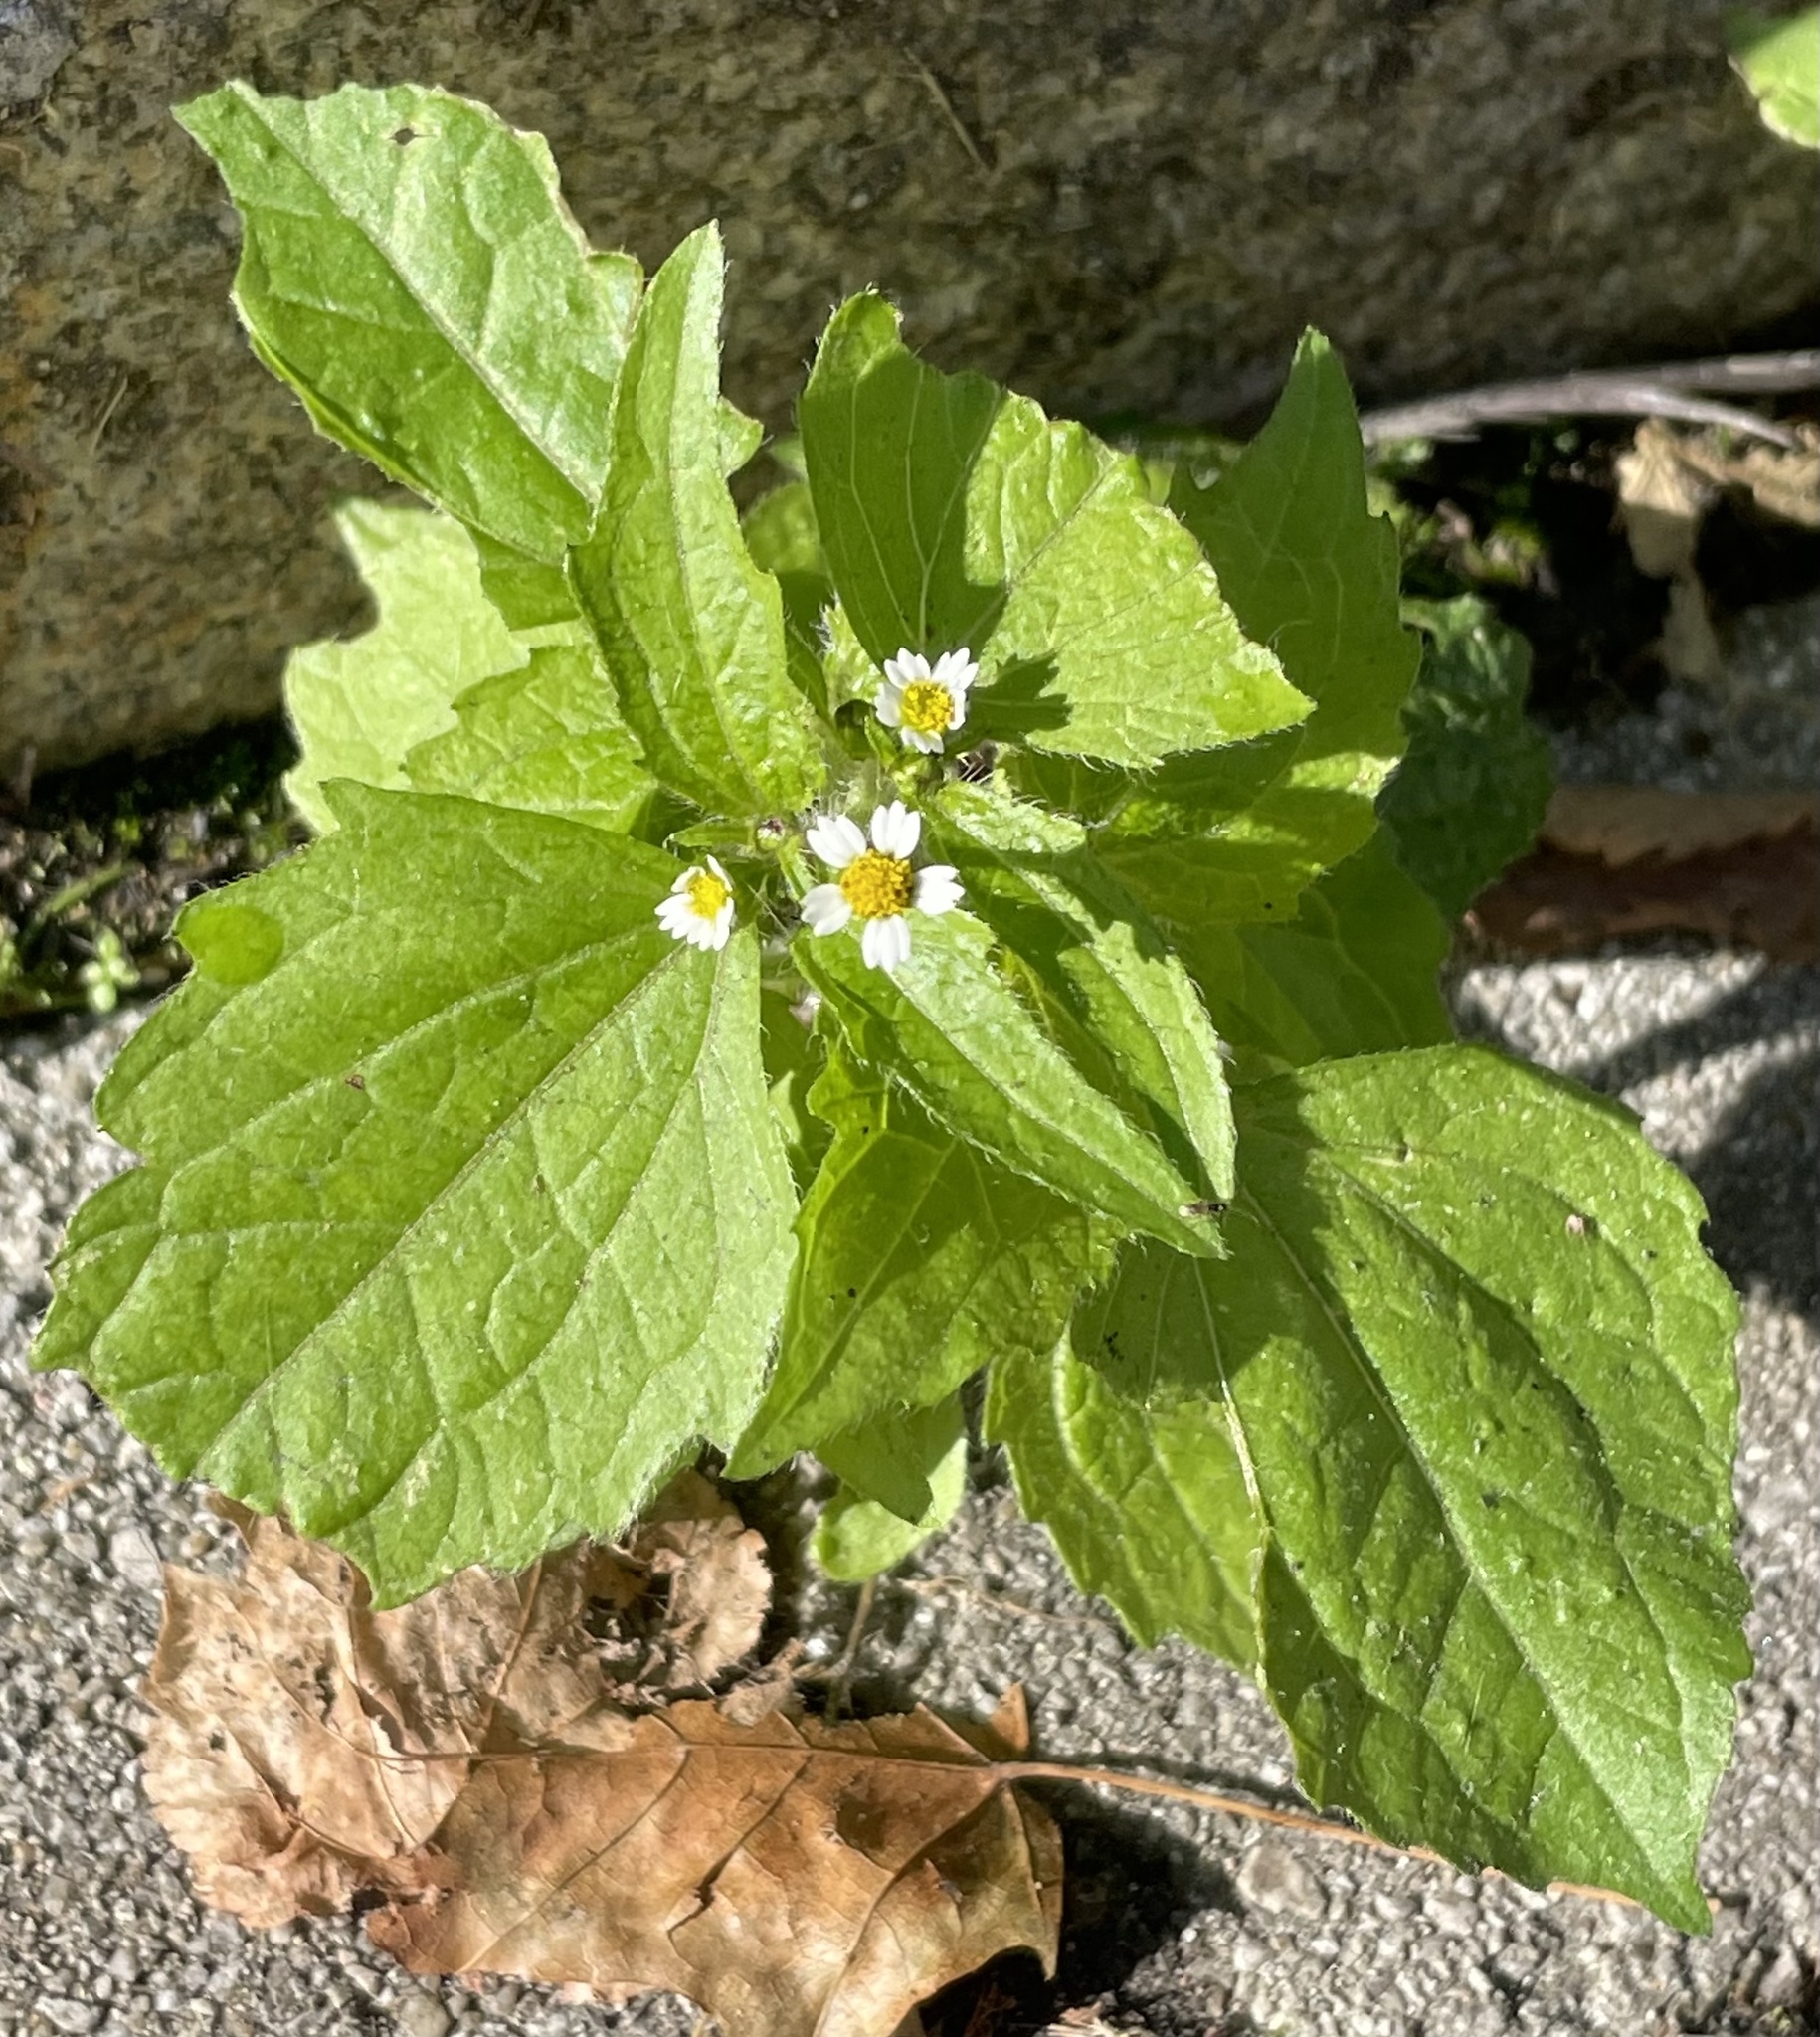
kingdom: Plantae
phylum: Tracheophyta
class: Magnoliopsida
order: Asterales
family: Asteraceae
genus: Galinsoga
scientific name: Galinsoga quadriradiata
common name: Shaggy soldier
